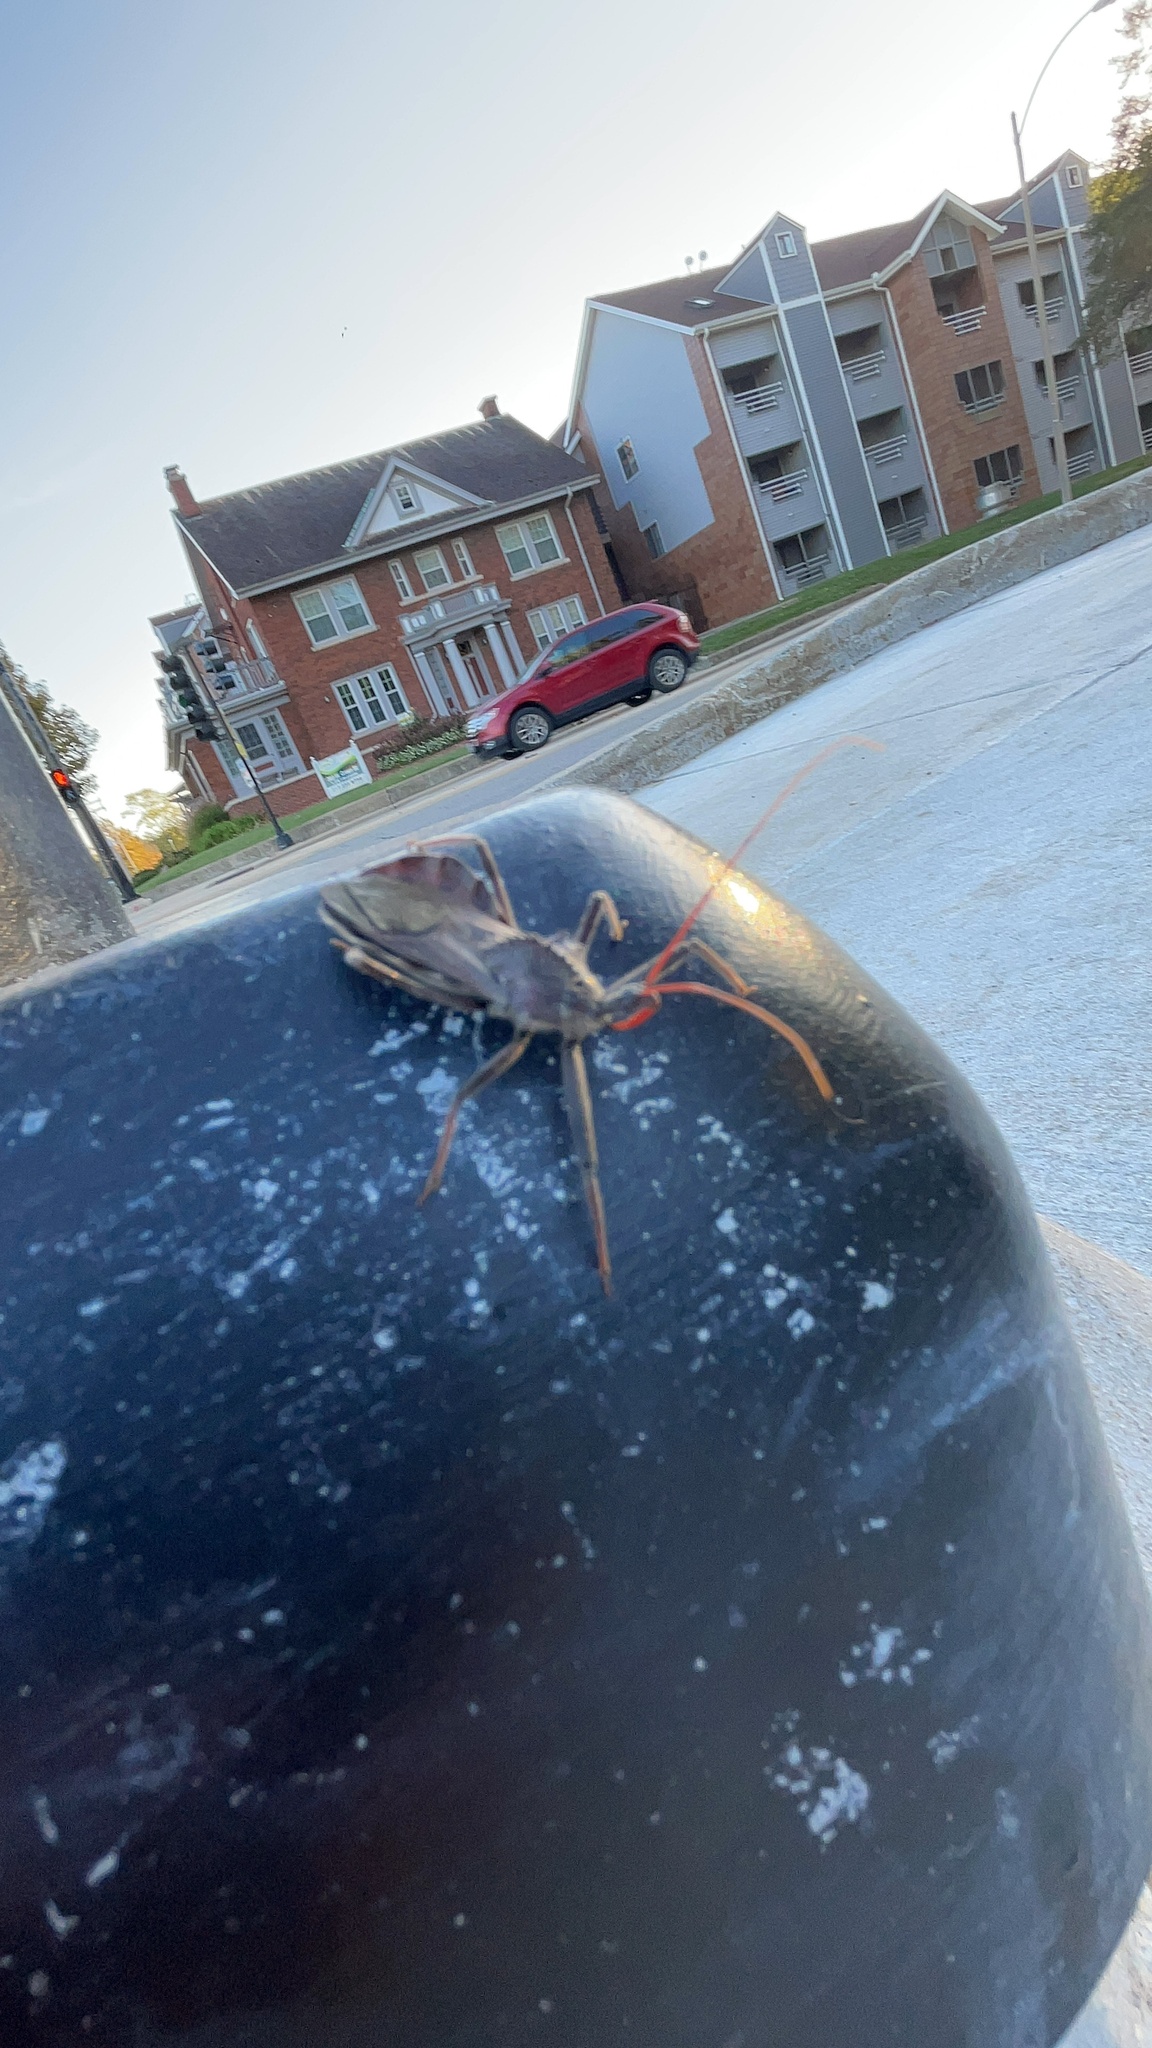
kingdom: Animalia
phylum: Arthropoda
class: Insecta
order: Hemiptera
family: Reduviidae
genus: Arilus
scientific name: Arilus cristatus
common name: North american wheel bug
